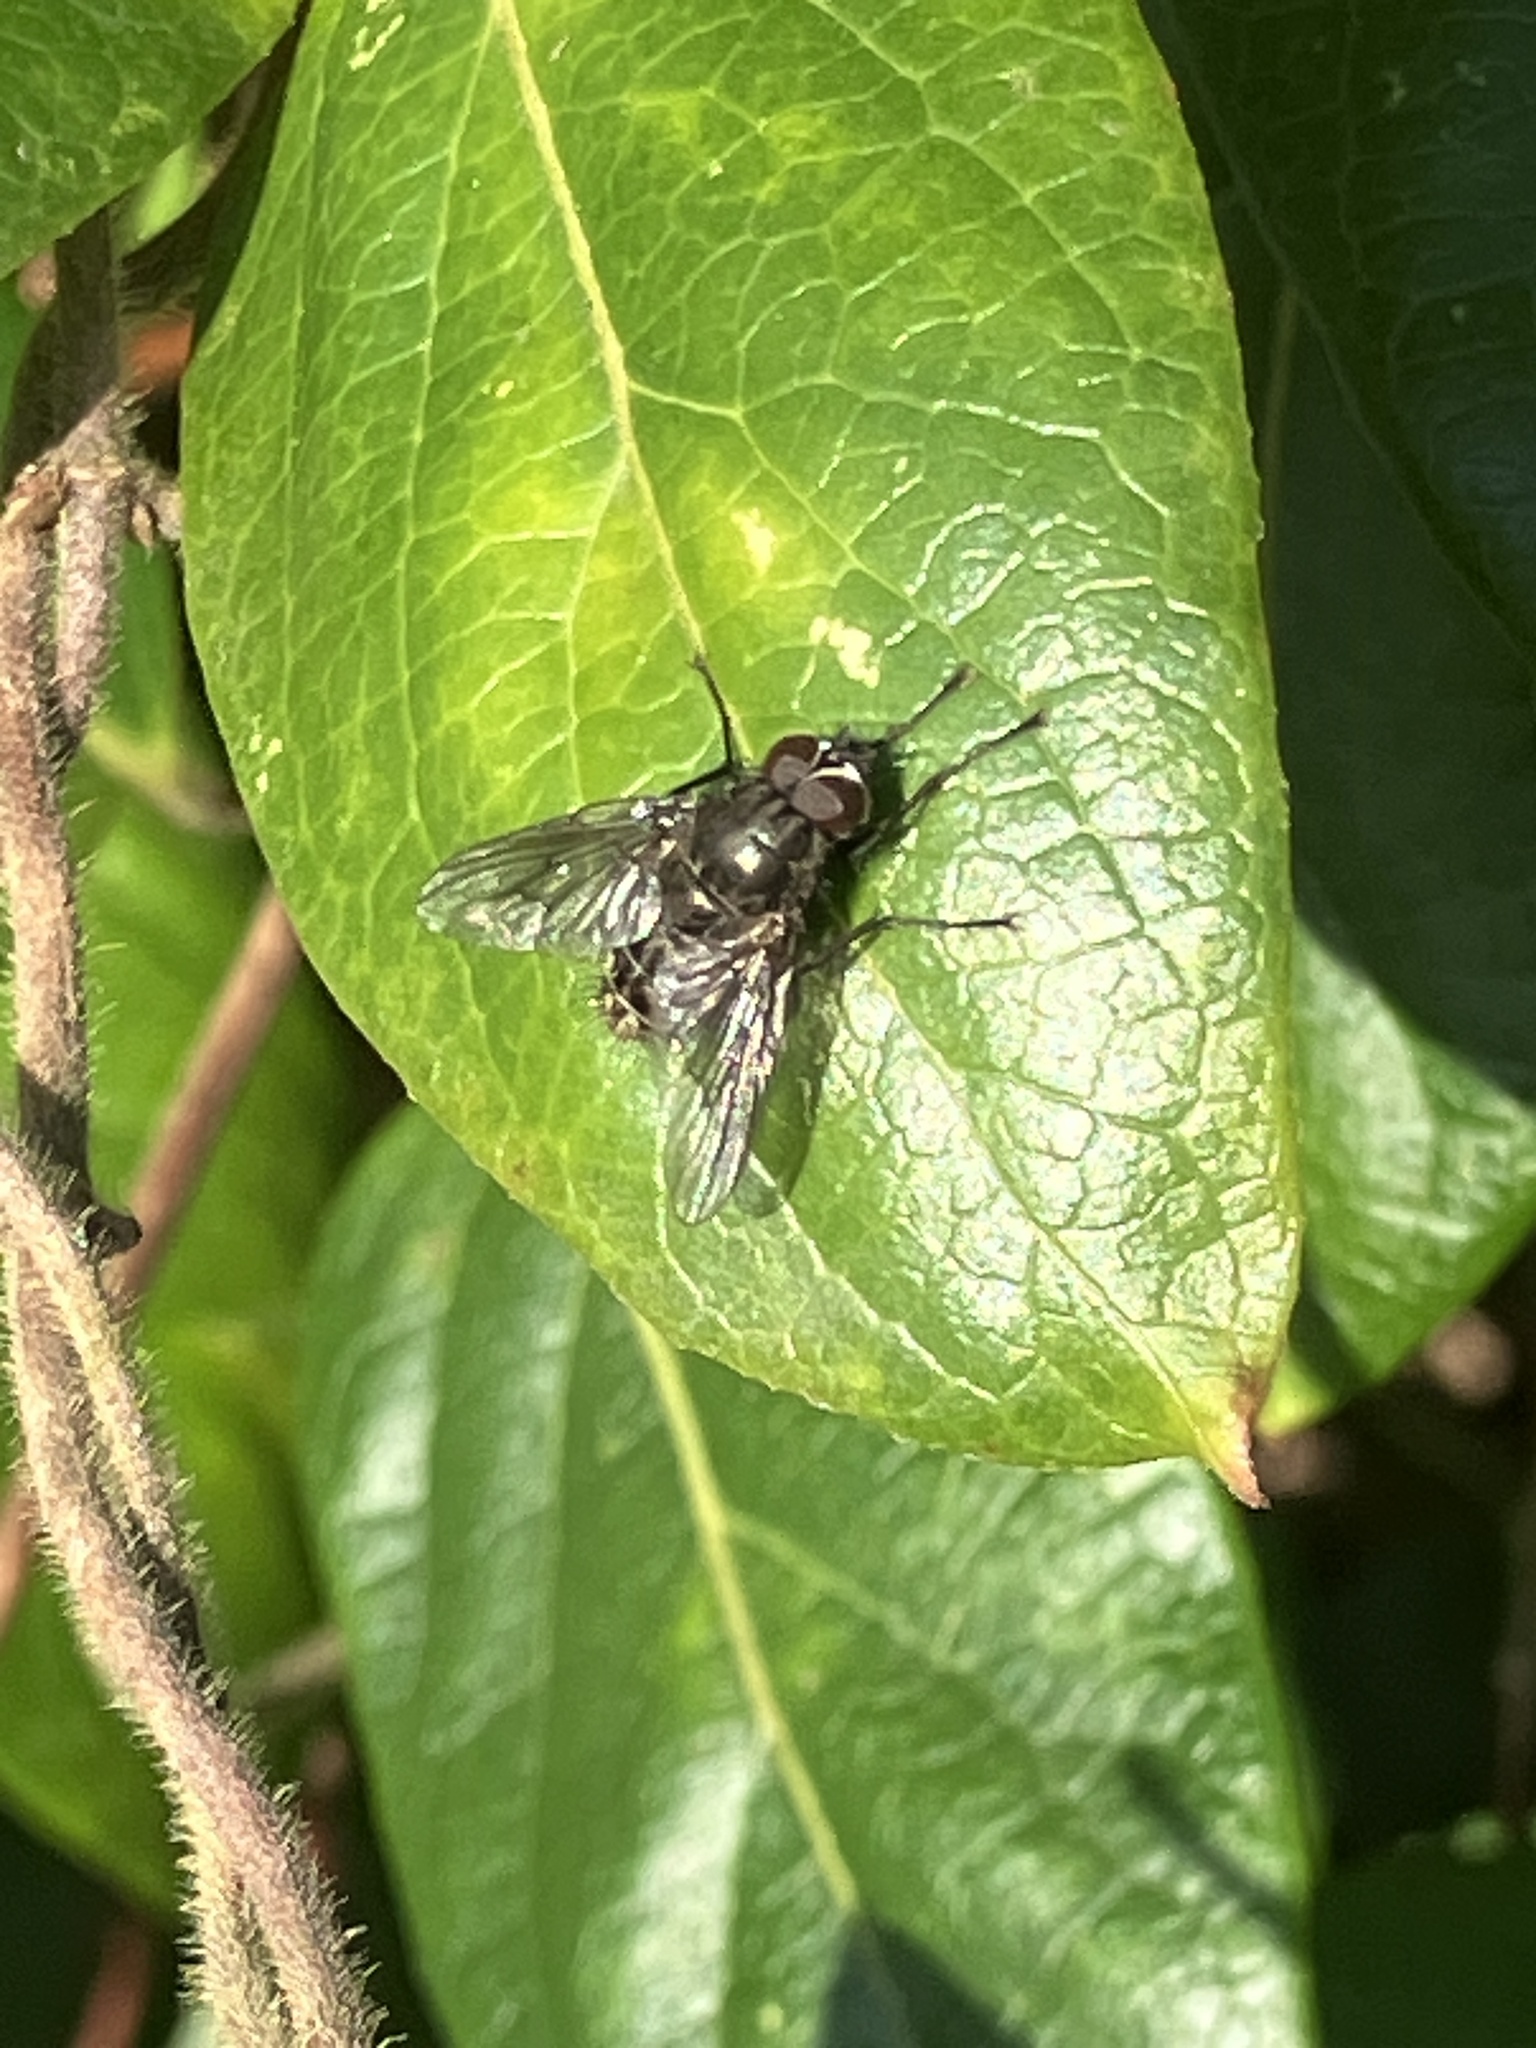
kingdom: Animalia
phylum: Arthropoda
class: Insecta
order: Diptera
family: Muscidae
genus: Helina
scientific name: Helina evecta
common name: Muscid fly
